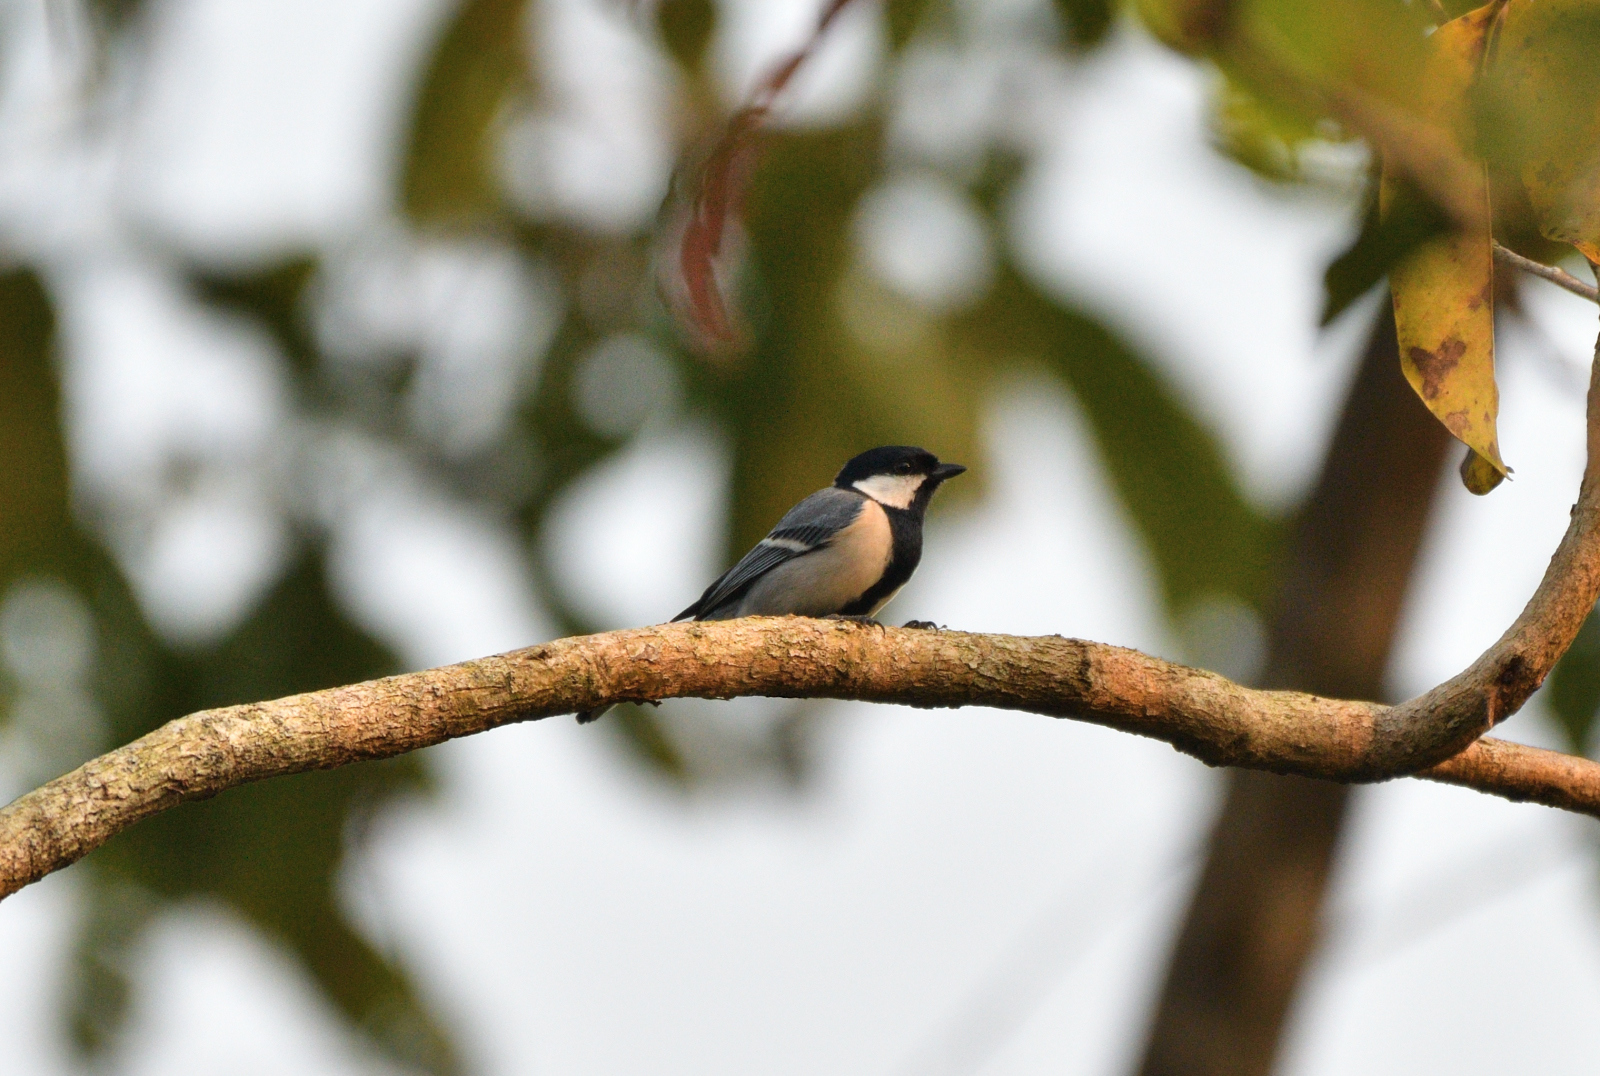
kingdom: Animalia
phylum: Chordata
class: Aves
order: Passeriformes
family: Paridae
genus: Parus
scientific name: Parus cinereus
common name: Cinereous tit
